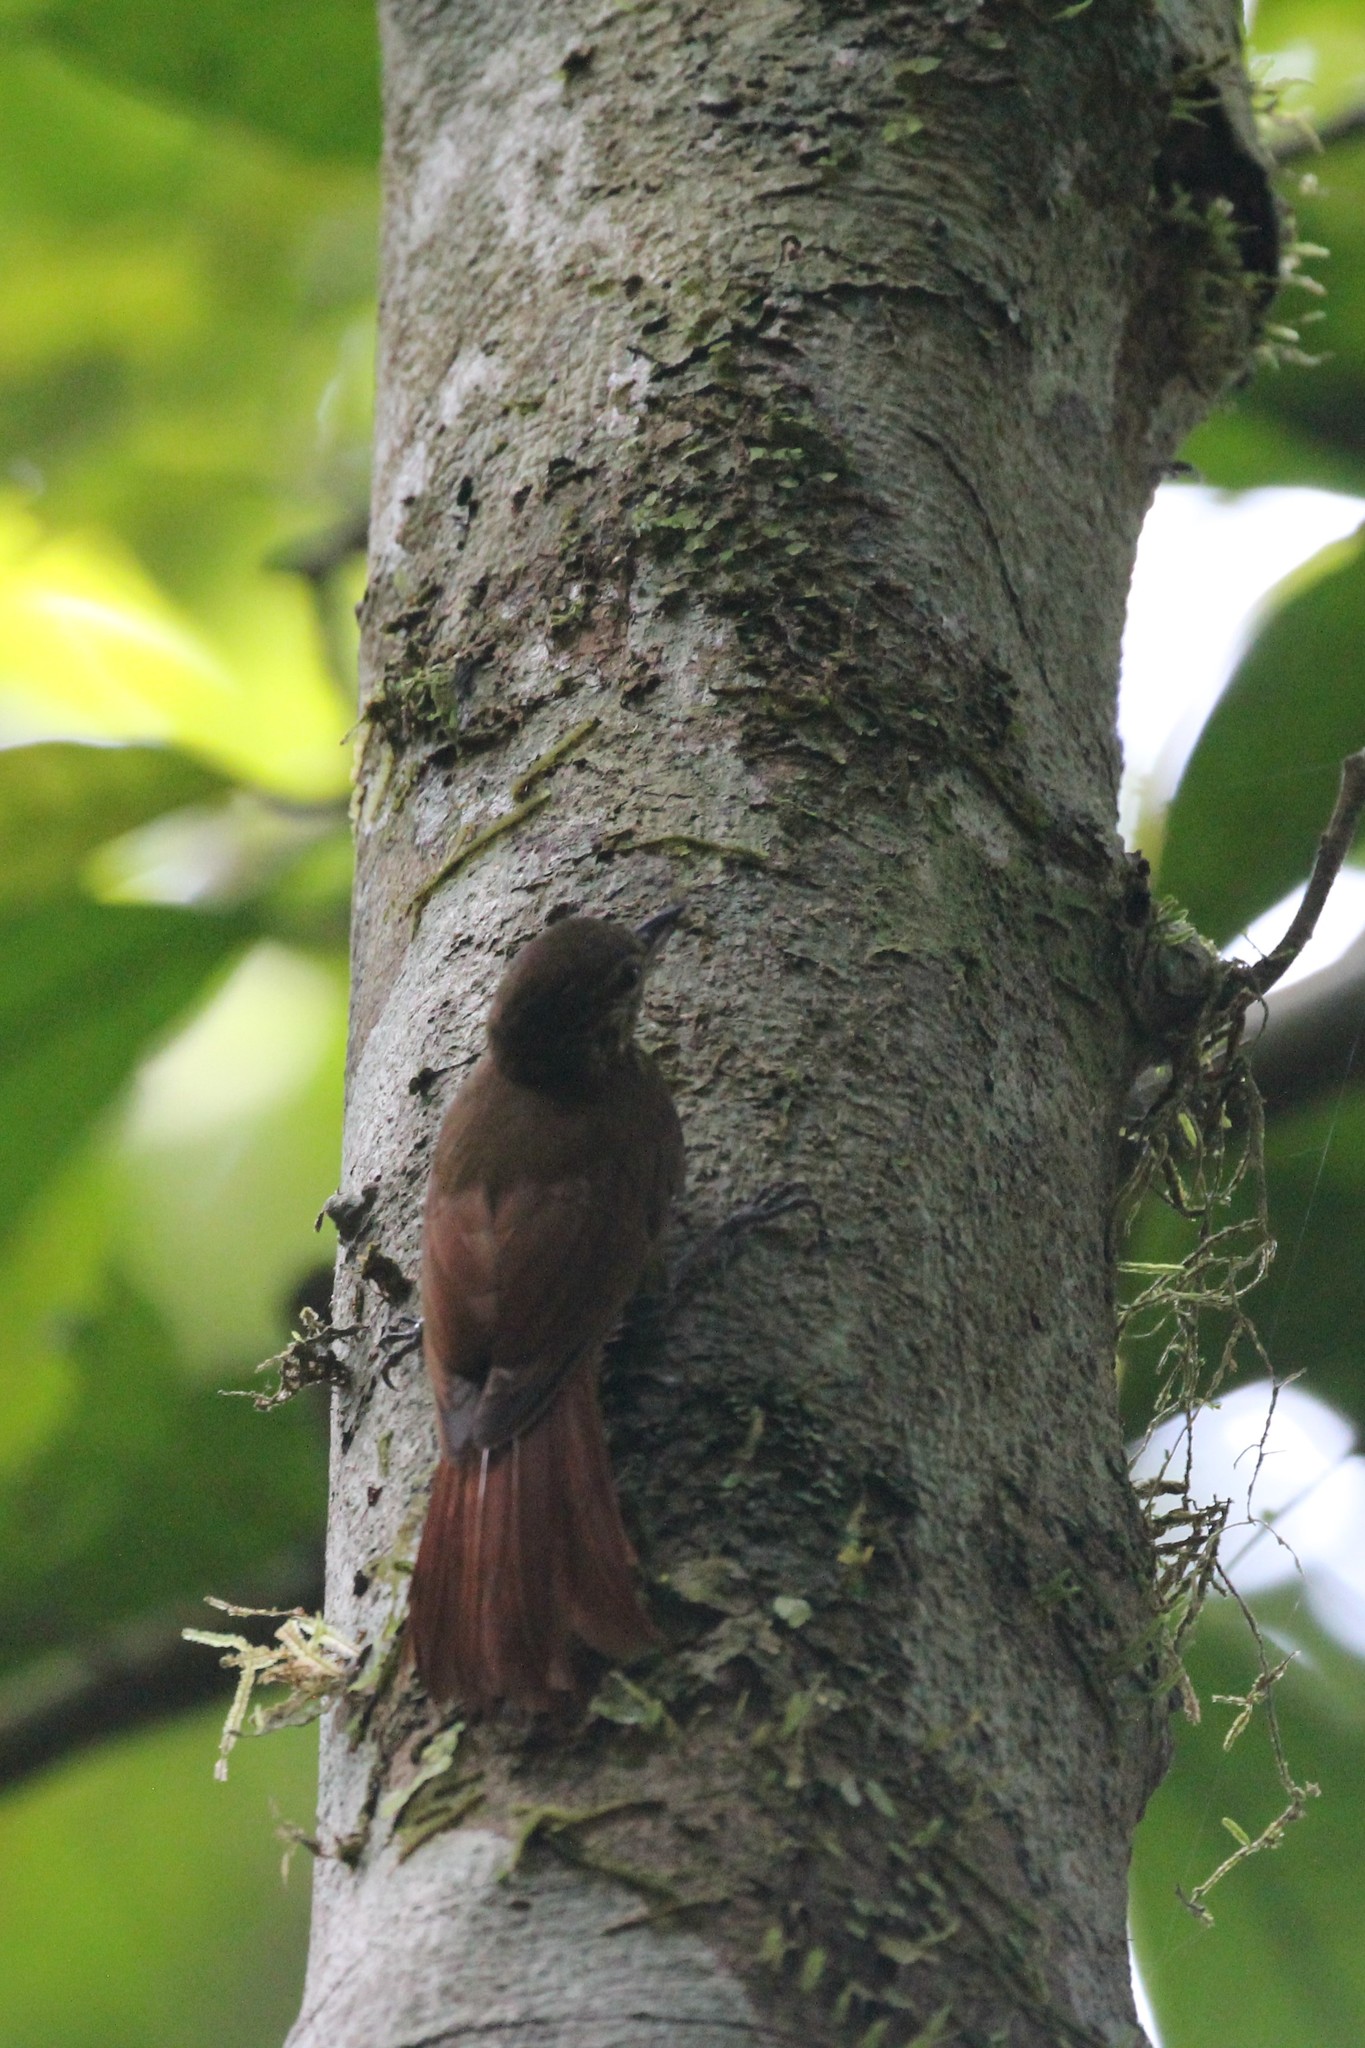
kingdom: Animalia
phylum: Chordata
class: Aves
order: Passeriformes
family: Furnariidae
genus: Glyphorynchus
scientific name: Glyphorynchus spirurus
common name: Wedge-billed woodcreeper
